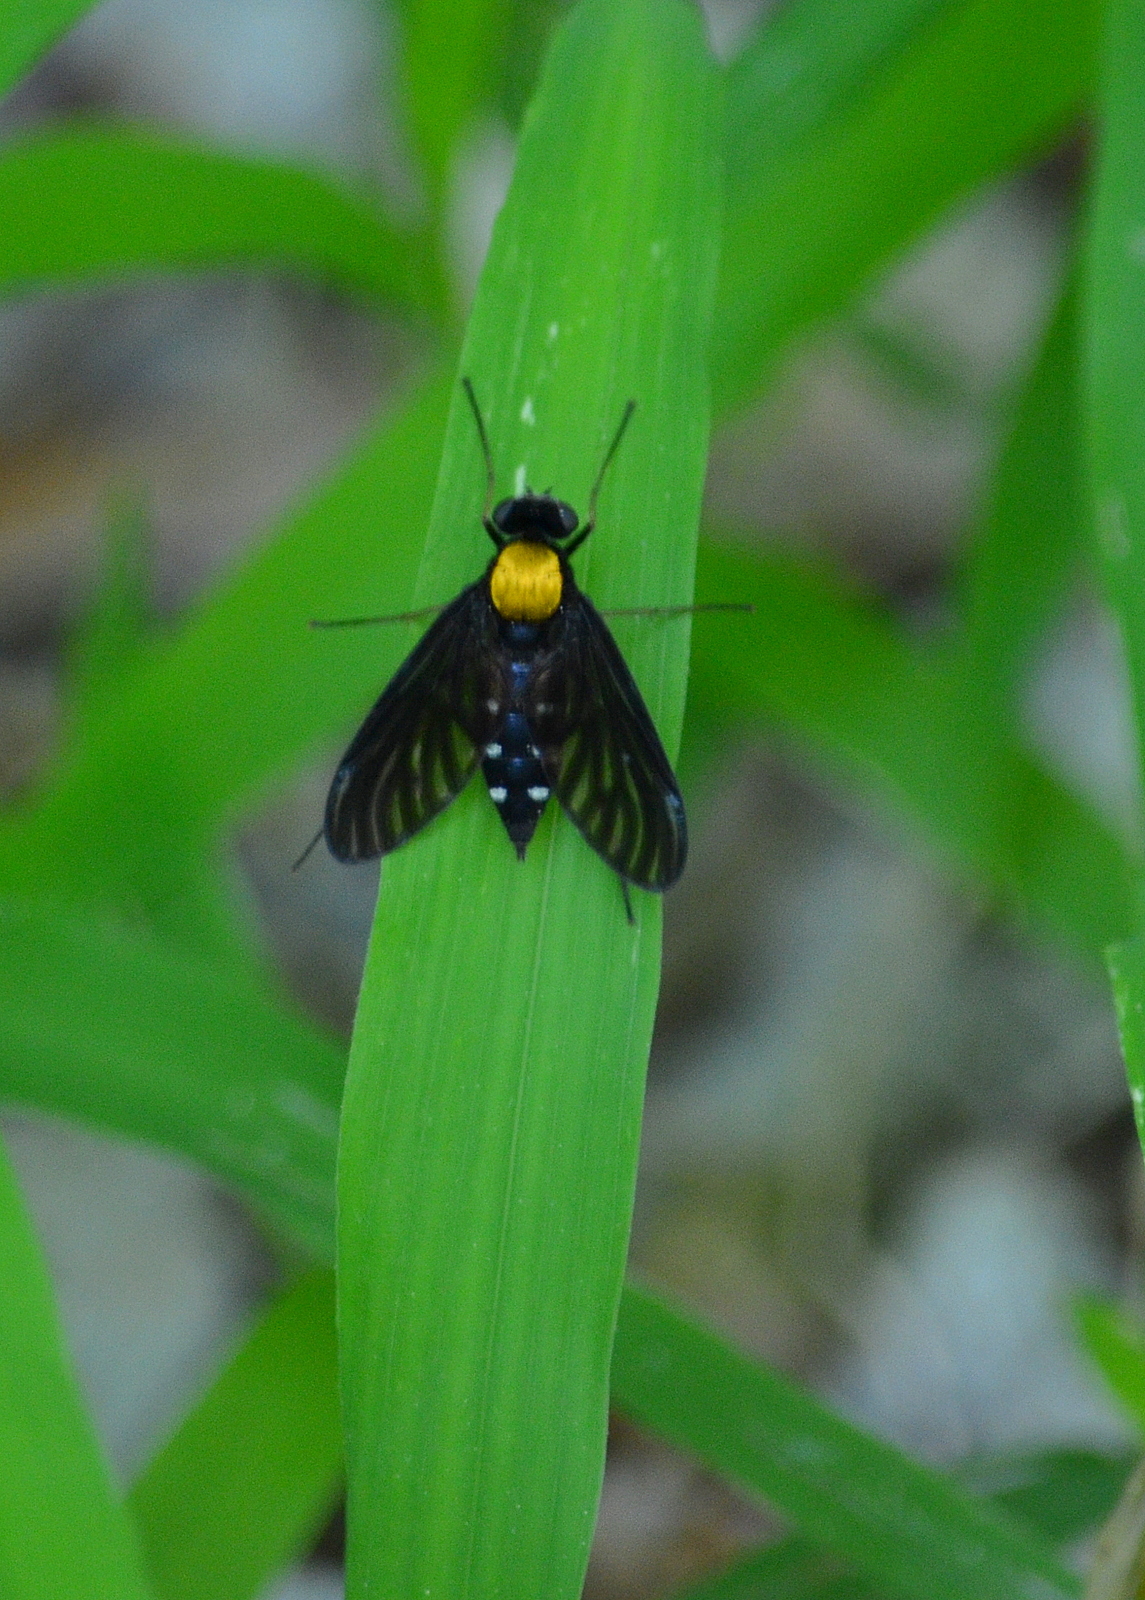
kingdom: Animalia
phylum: Arthropoda
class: Insecta
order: Diptera
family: Rhagionidae
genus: Chrysopilus
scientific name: Chrysopilus thoracicus
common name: Golden-backed snipe fly
